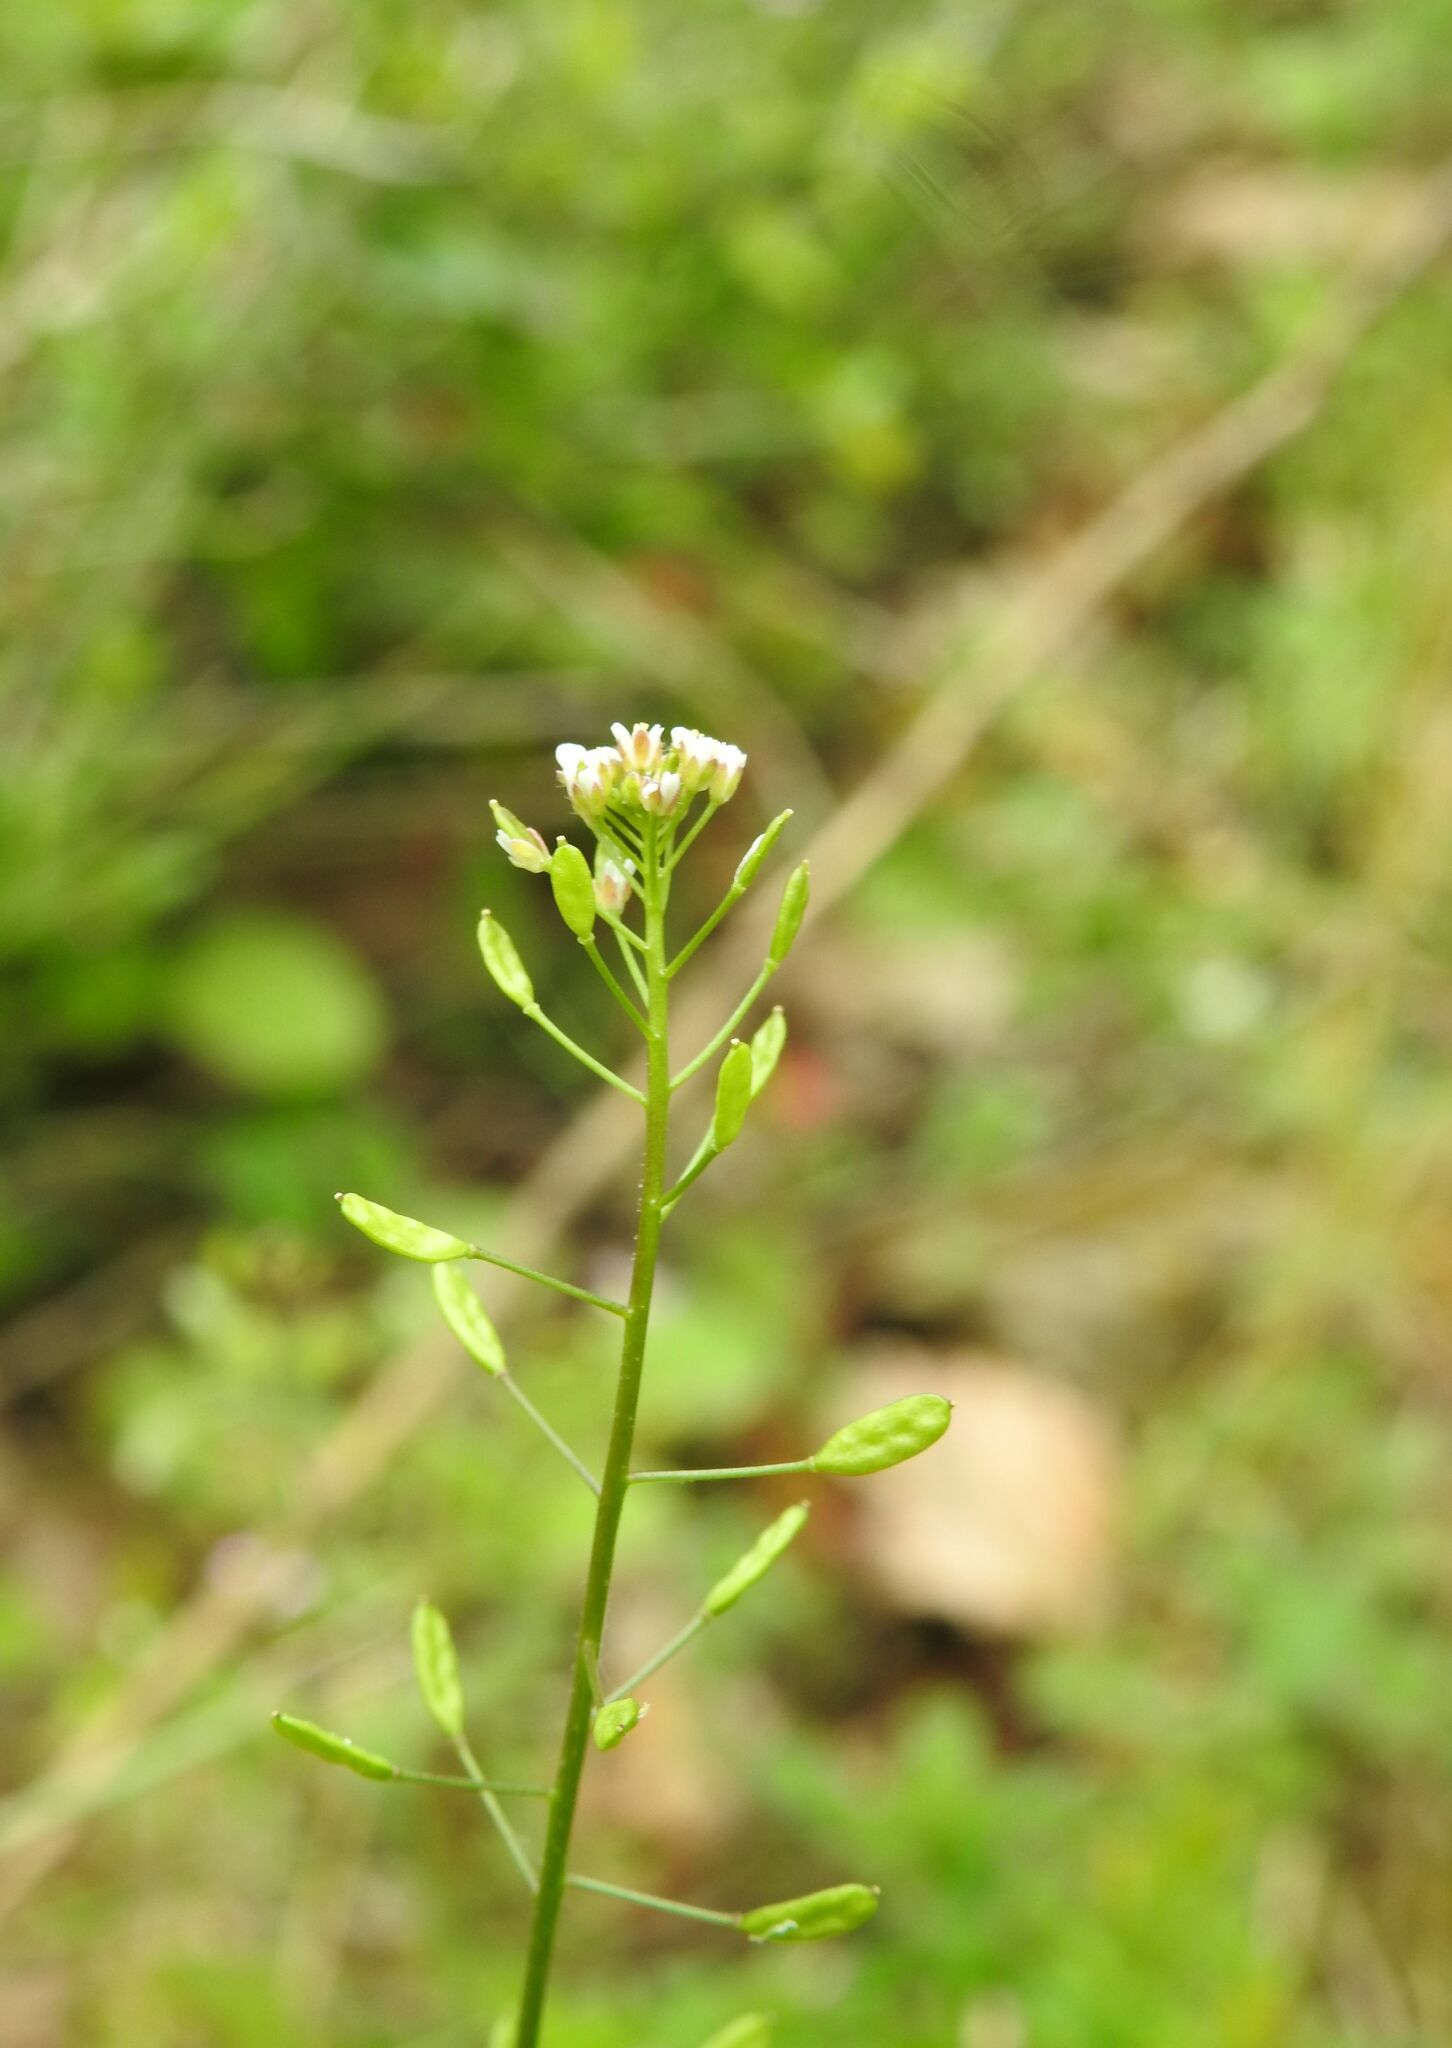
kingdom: Plantae
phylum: Tracheophyta
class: Magnoliopsida
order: Brassicales
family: Brassicaceae
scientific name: Brassicaceae
